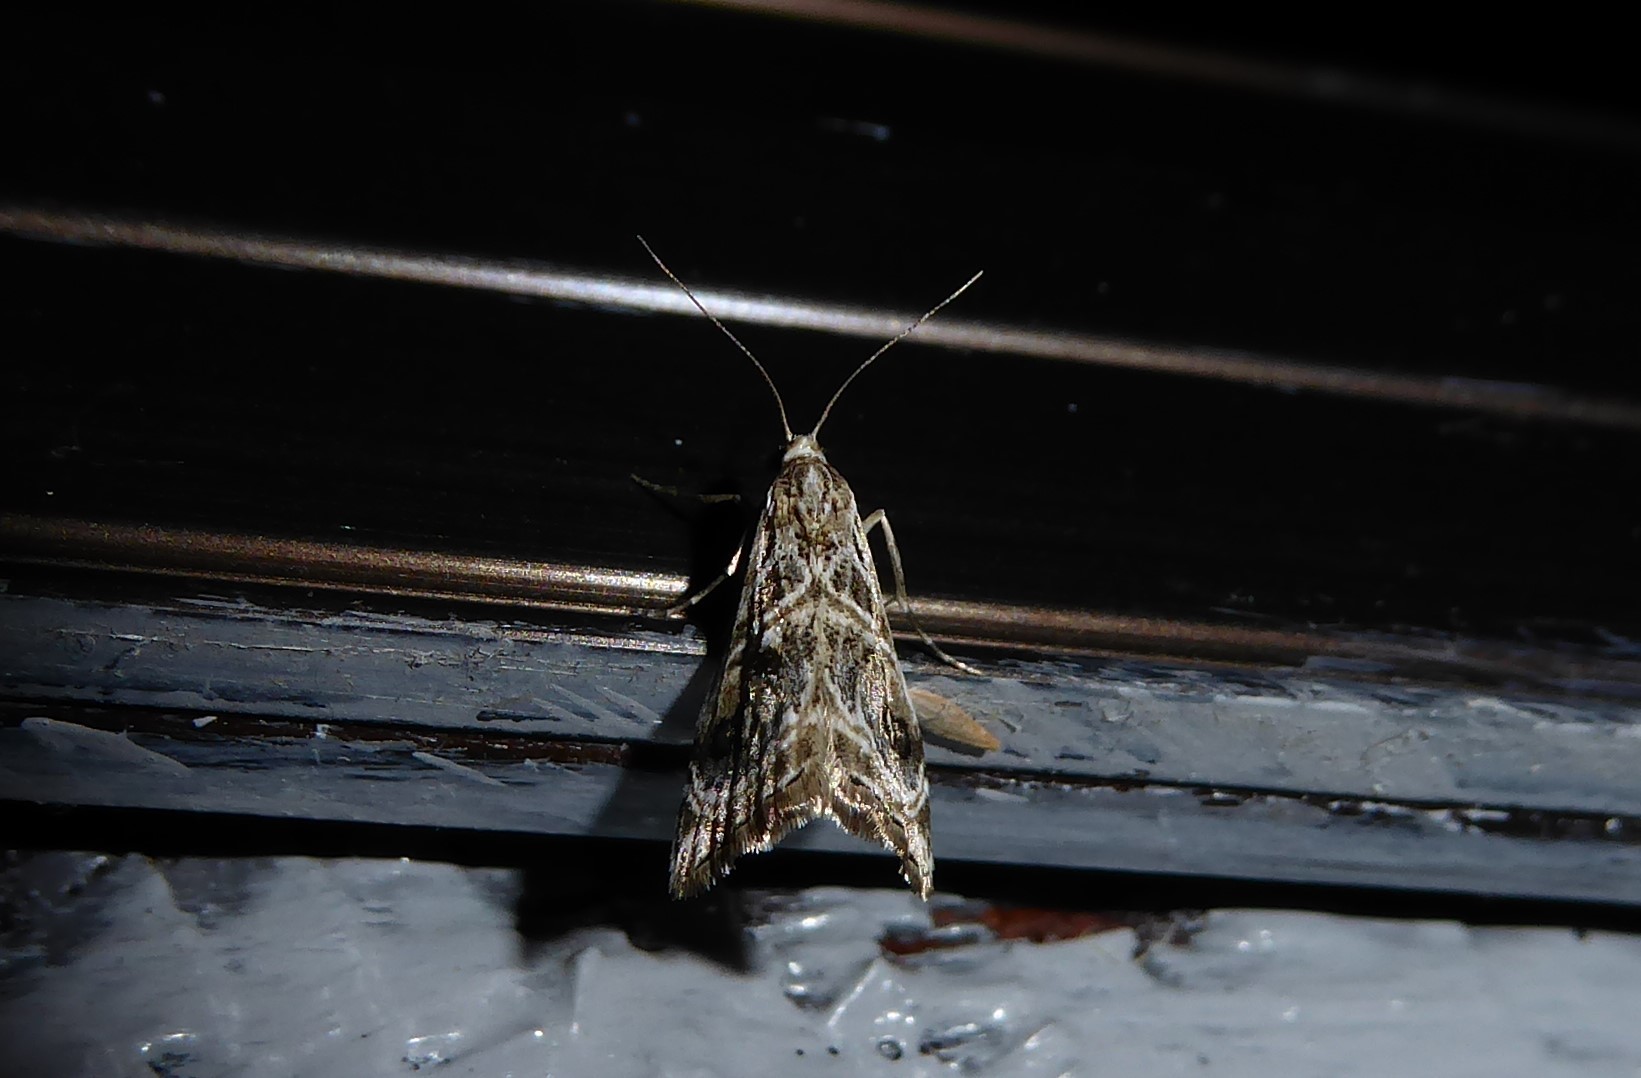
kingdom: Animalia
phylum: Arthropoda
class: Insecta
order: Lepidoptera
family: Crambidae
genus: Gadira
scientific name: Gadira acerella
